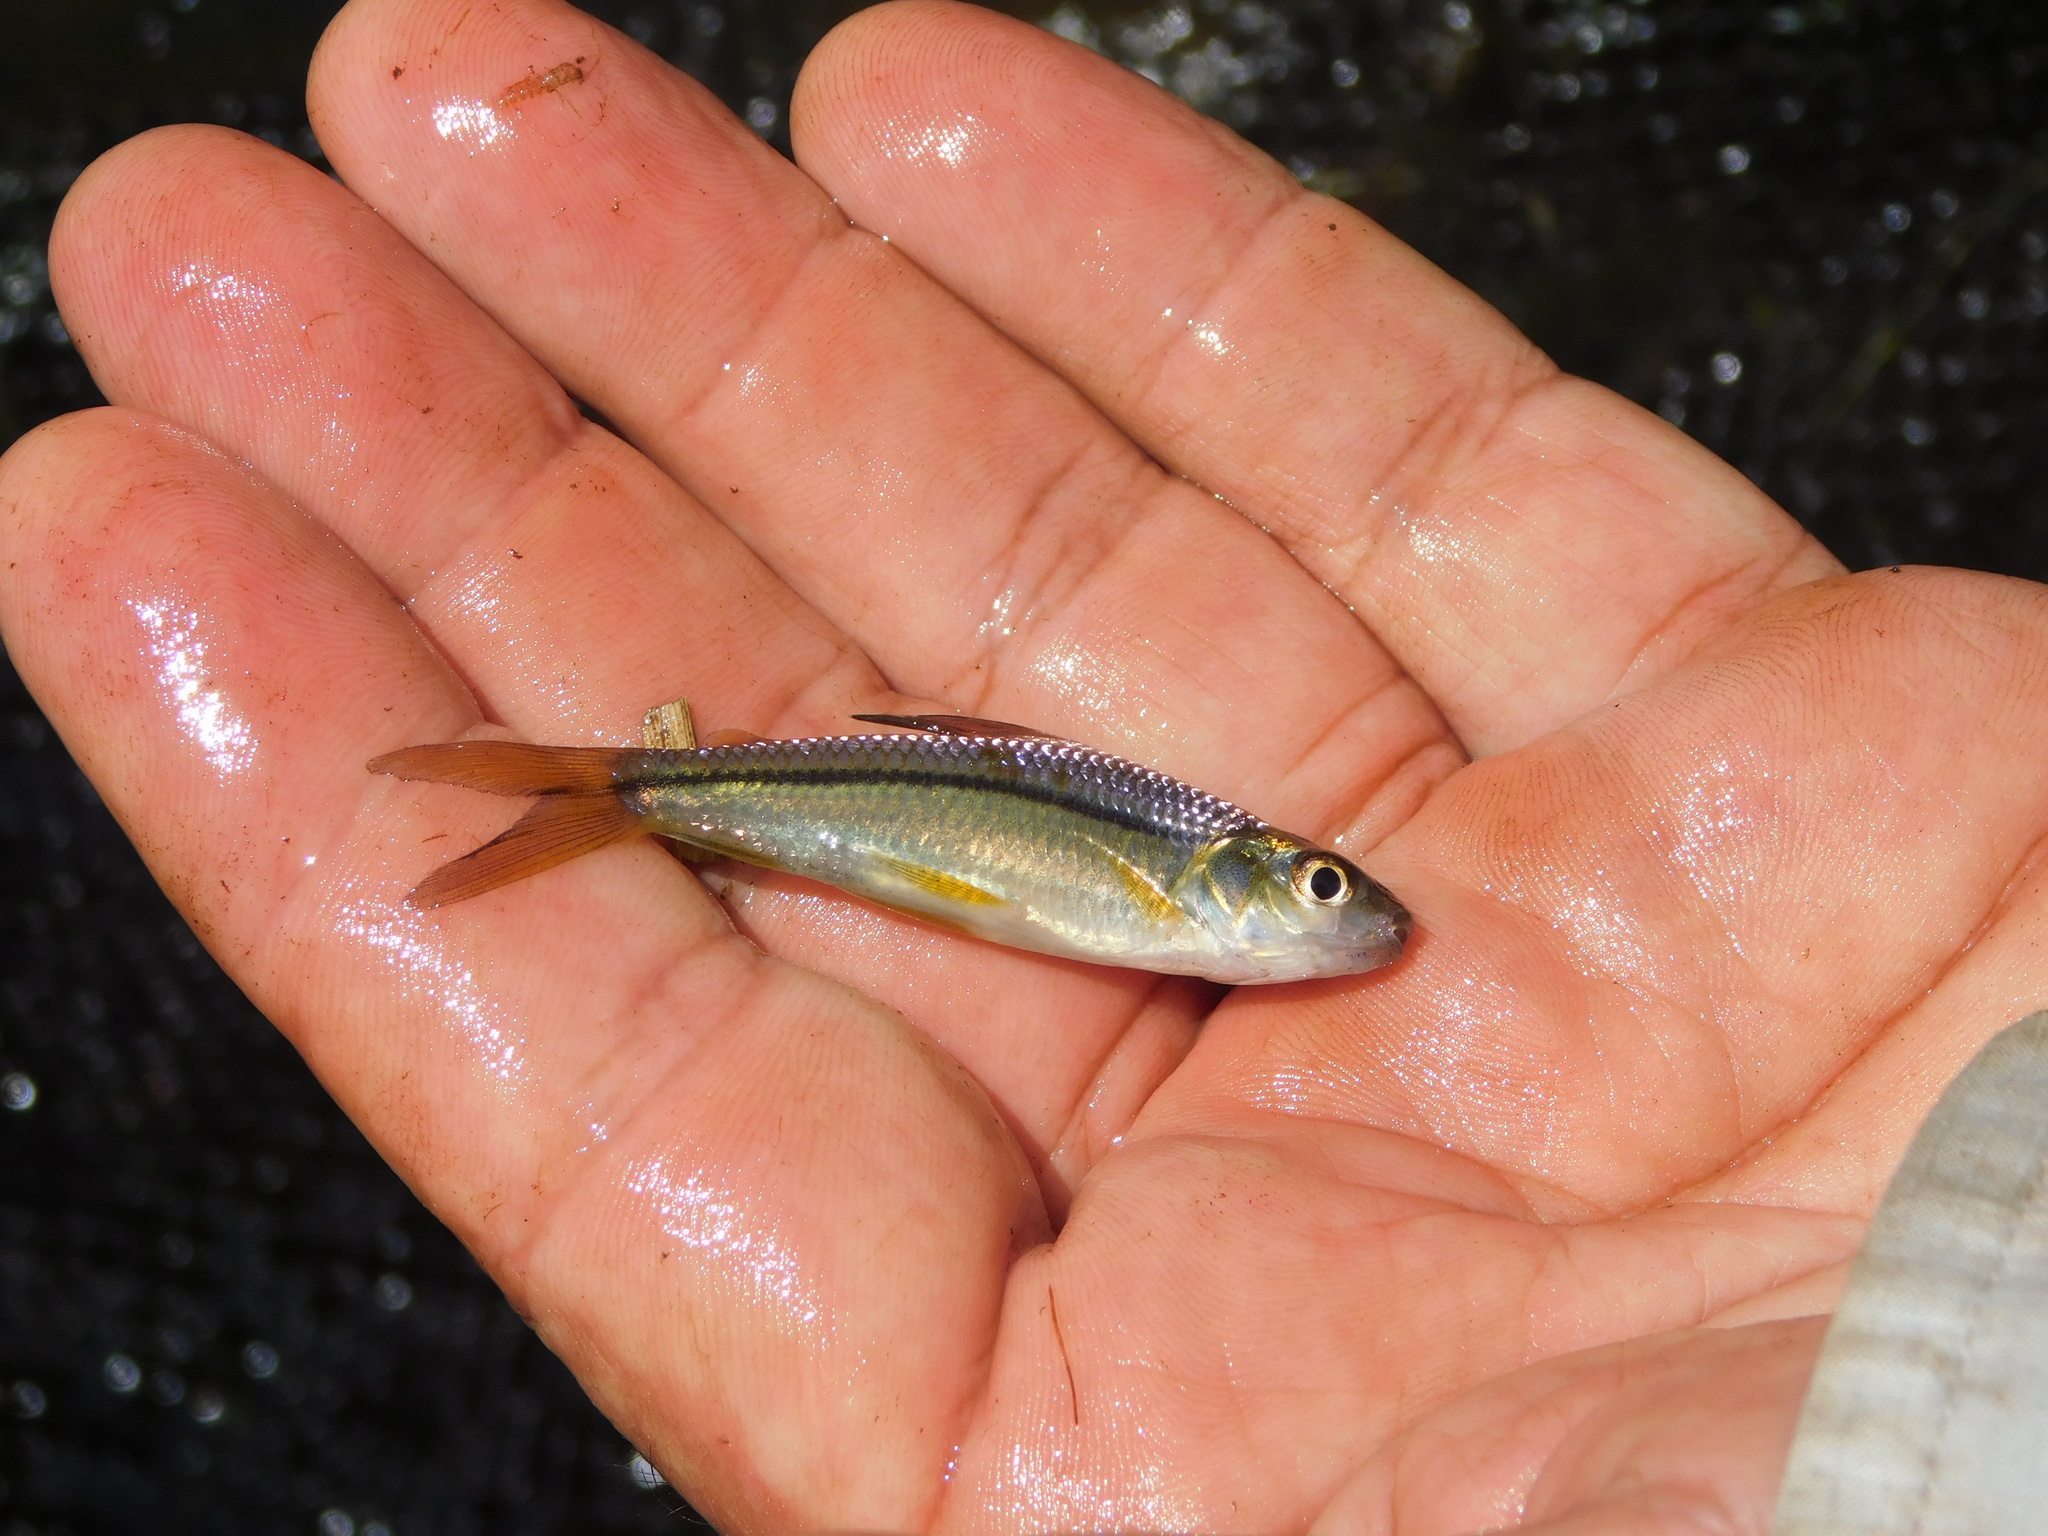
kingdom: Animalia
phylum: Chordata
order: Characiformes
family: Curimatidae
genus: Steindachnerina
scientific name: Steindachnerina brevipinna
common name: Characin
